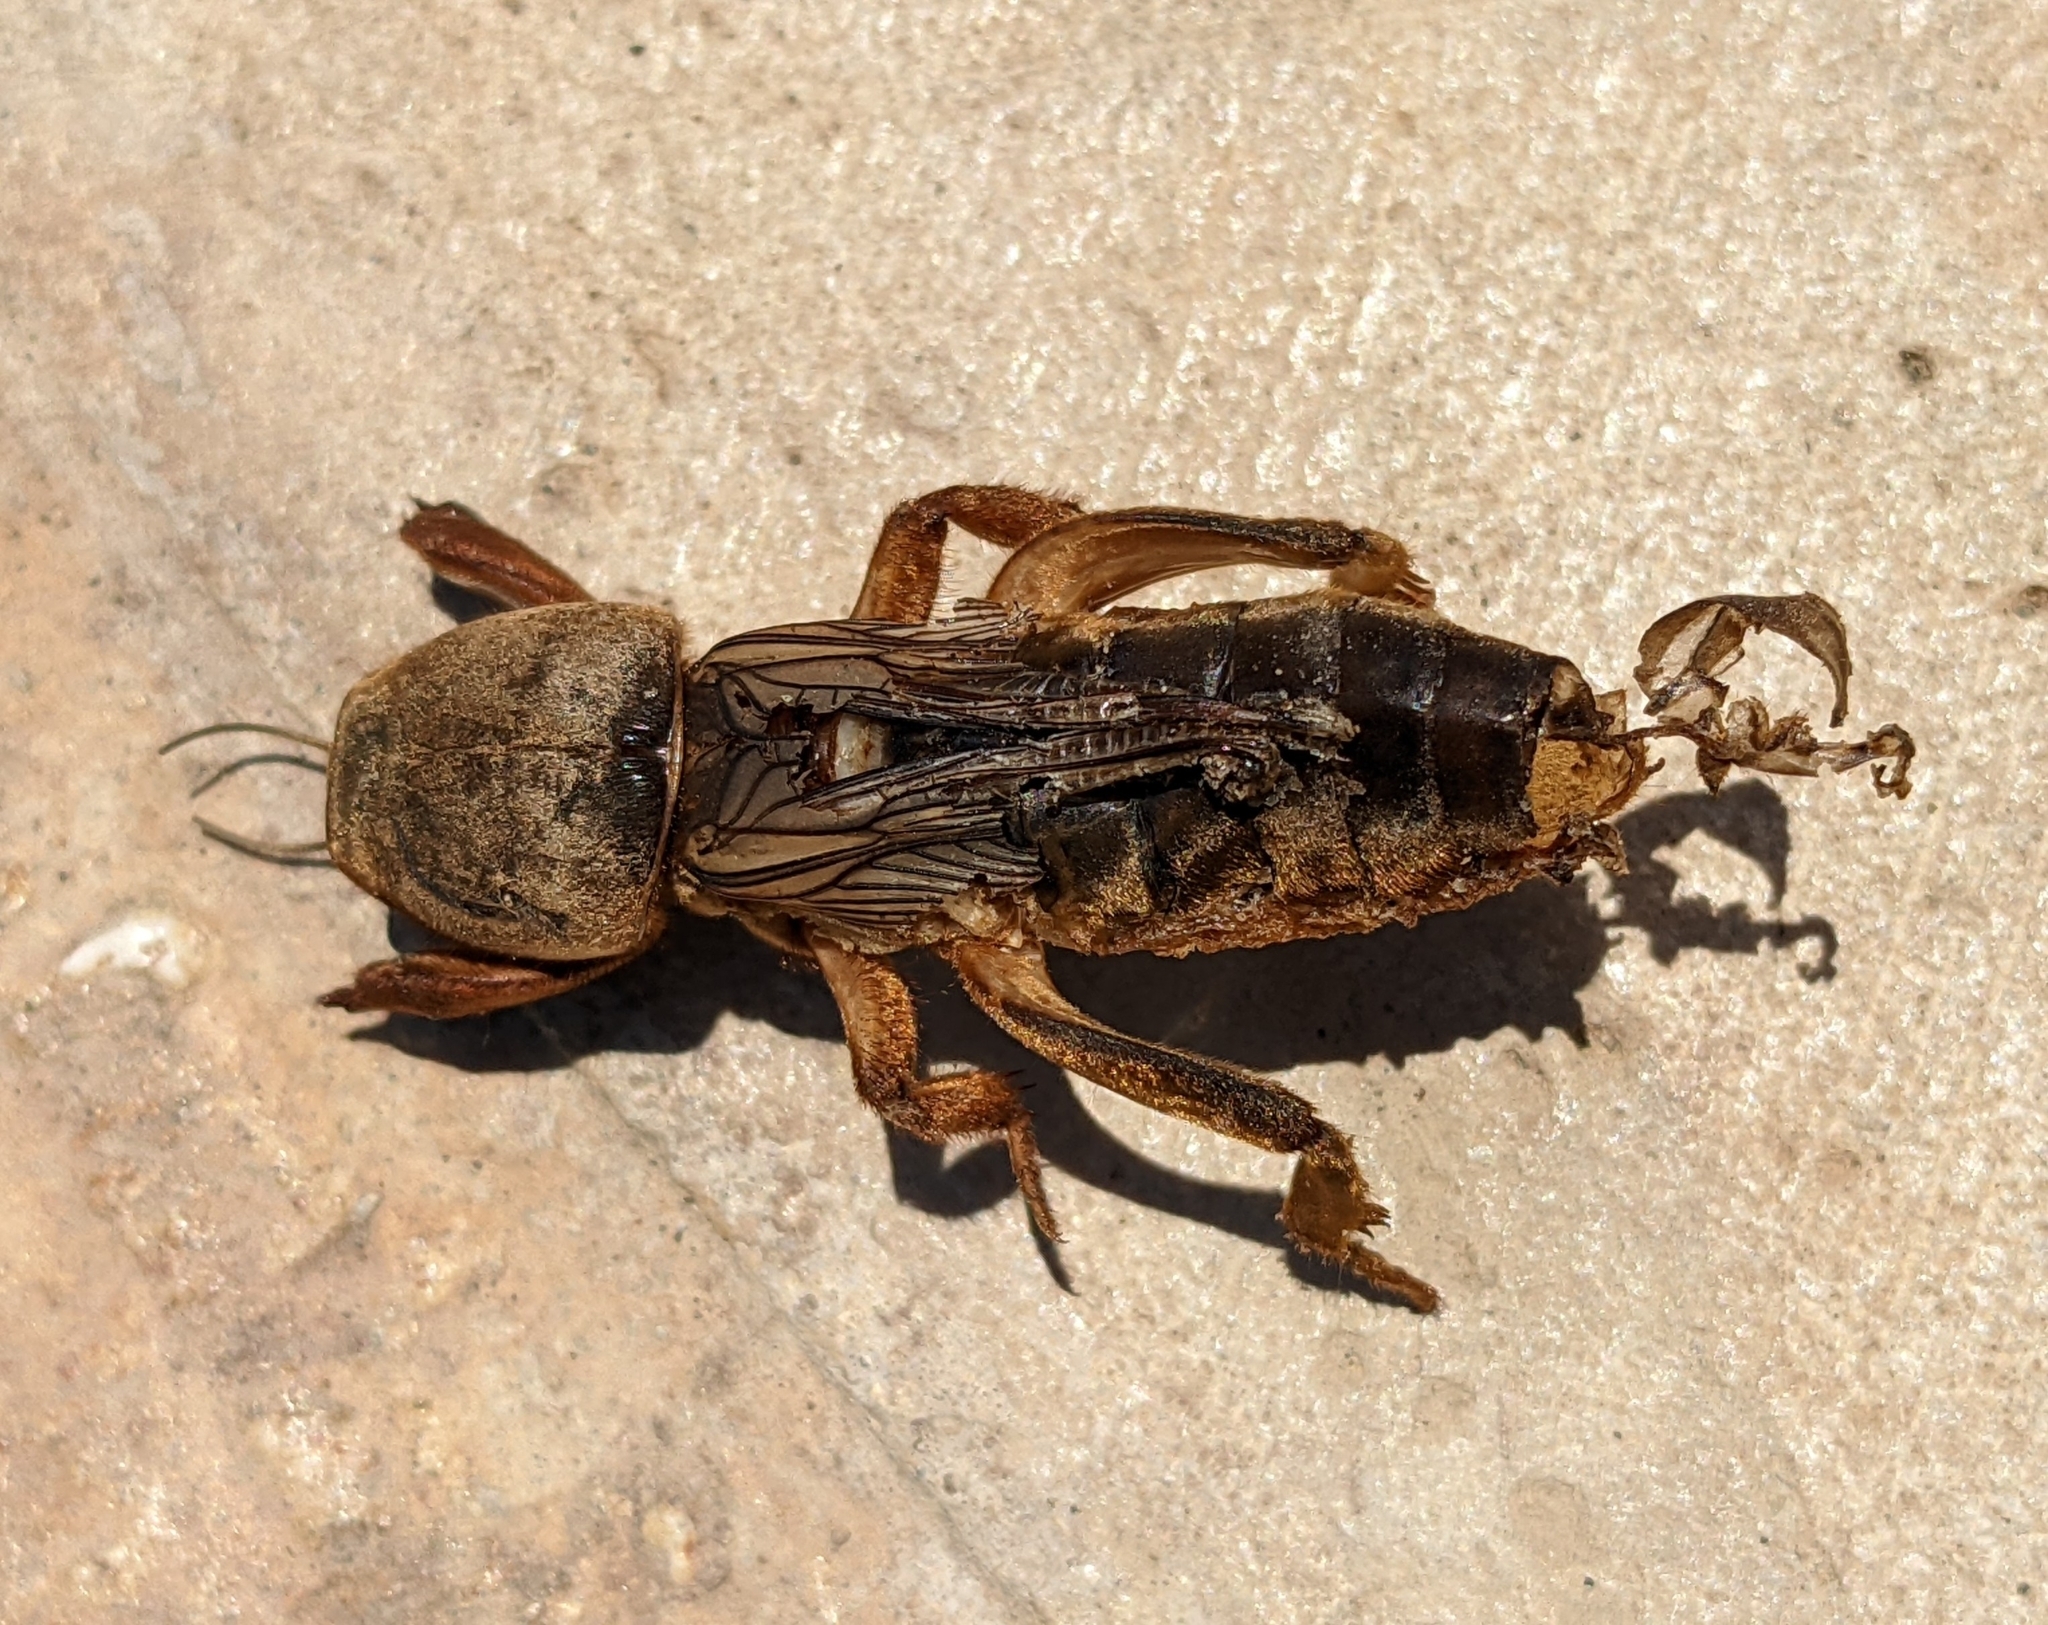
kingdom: Animalia
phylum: Arthropoda
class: Insecta
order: Orthoptera
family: Gryllotalpidae
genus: Gryllotalpa
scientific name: Gryllotalpa gryllotalpa
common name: European mole cricket
